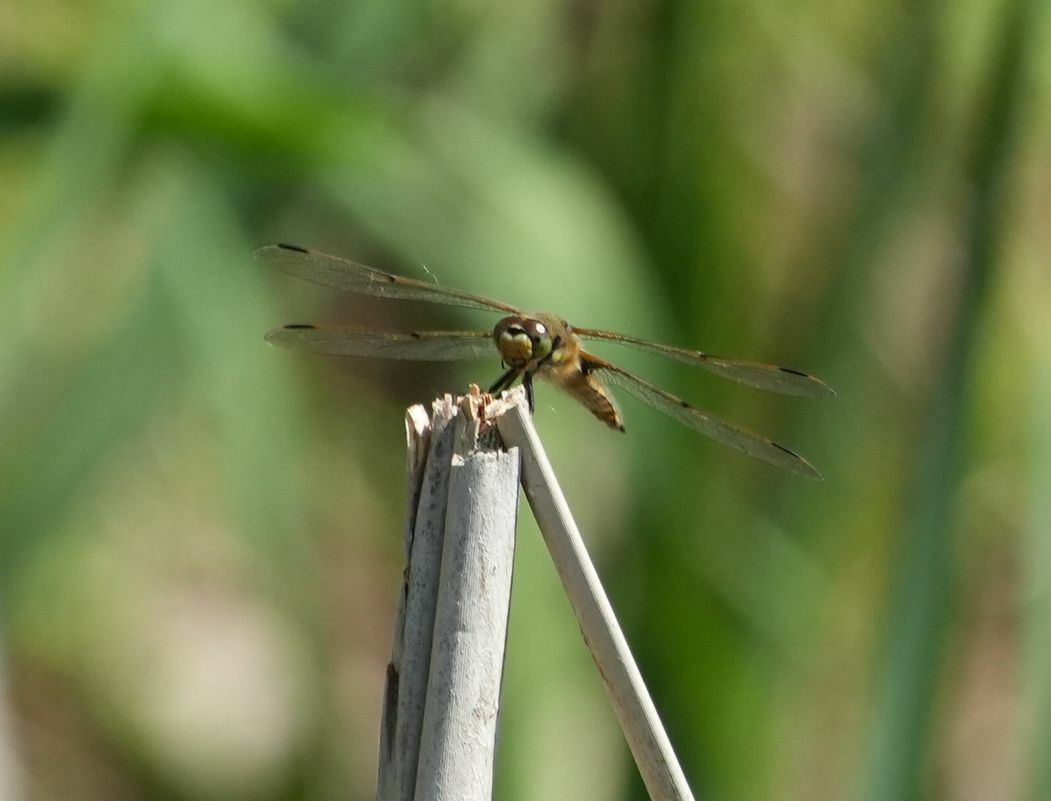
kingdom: Animalia
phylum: Arthropoda
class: Insecta
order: Odonata
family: Libellulidae
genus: Libellula
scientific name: Libellula quadrimaculata
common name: Four-spotted chaser
